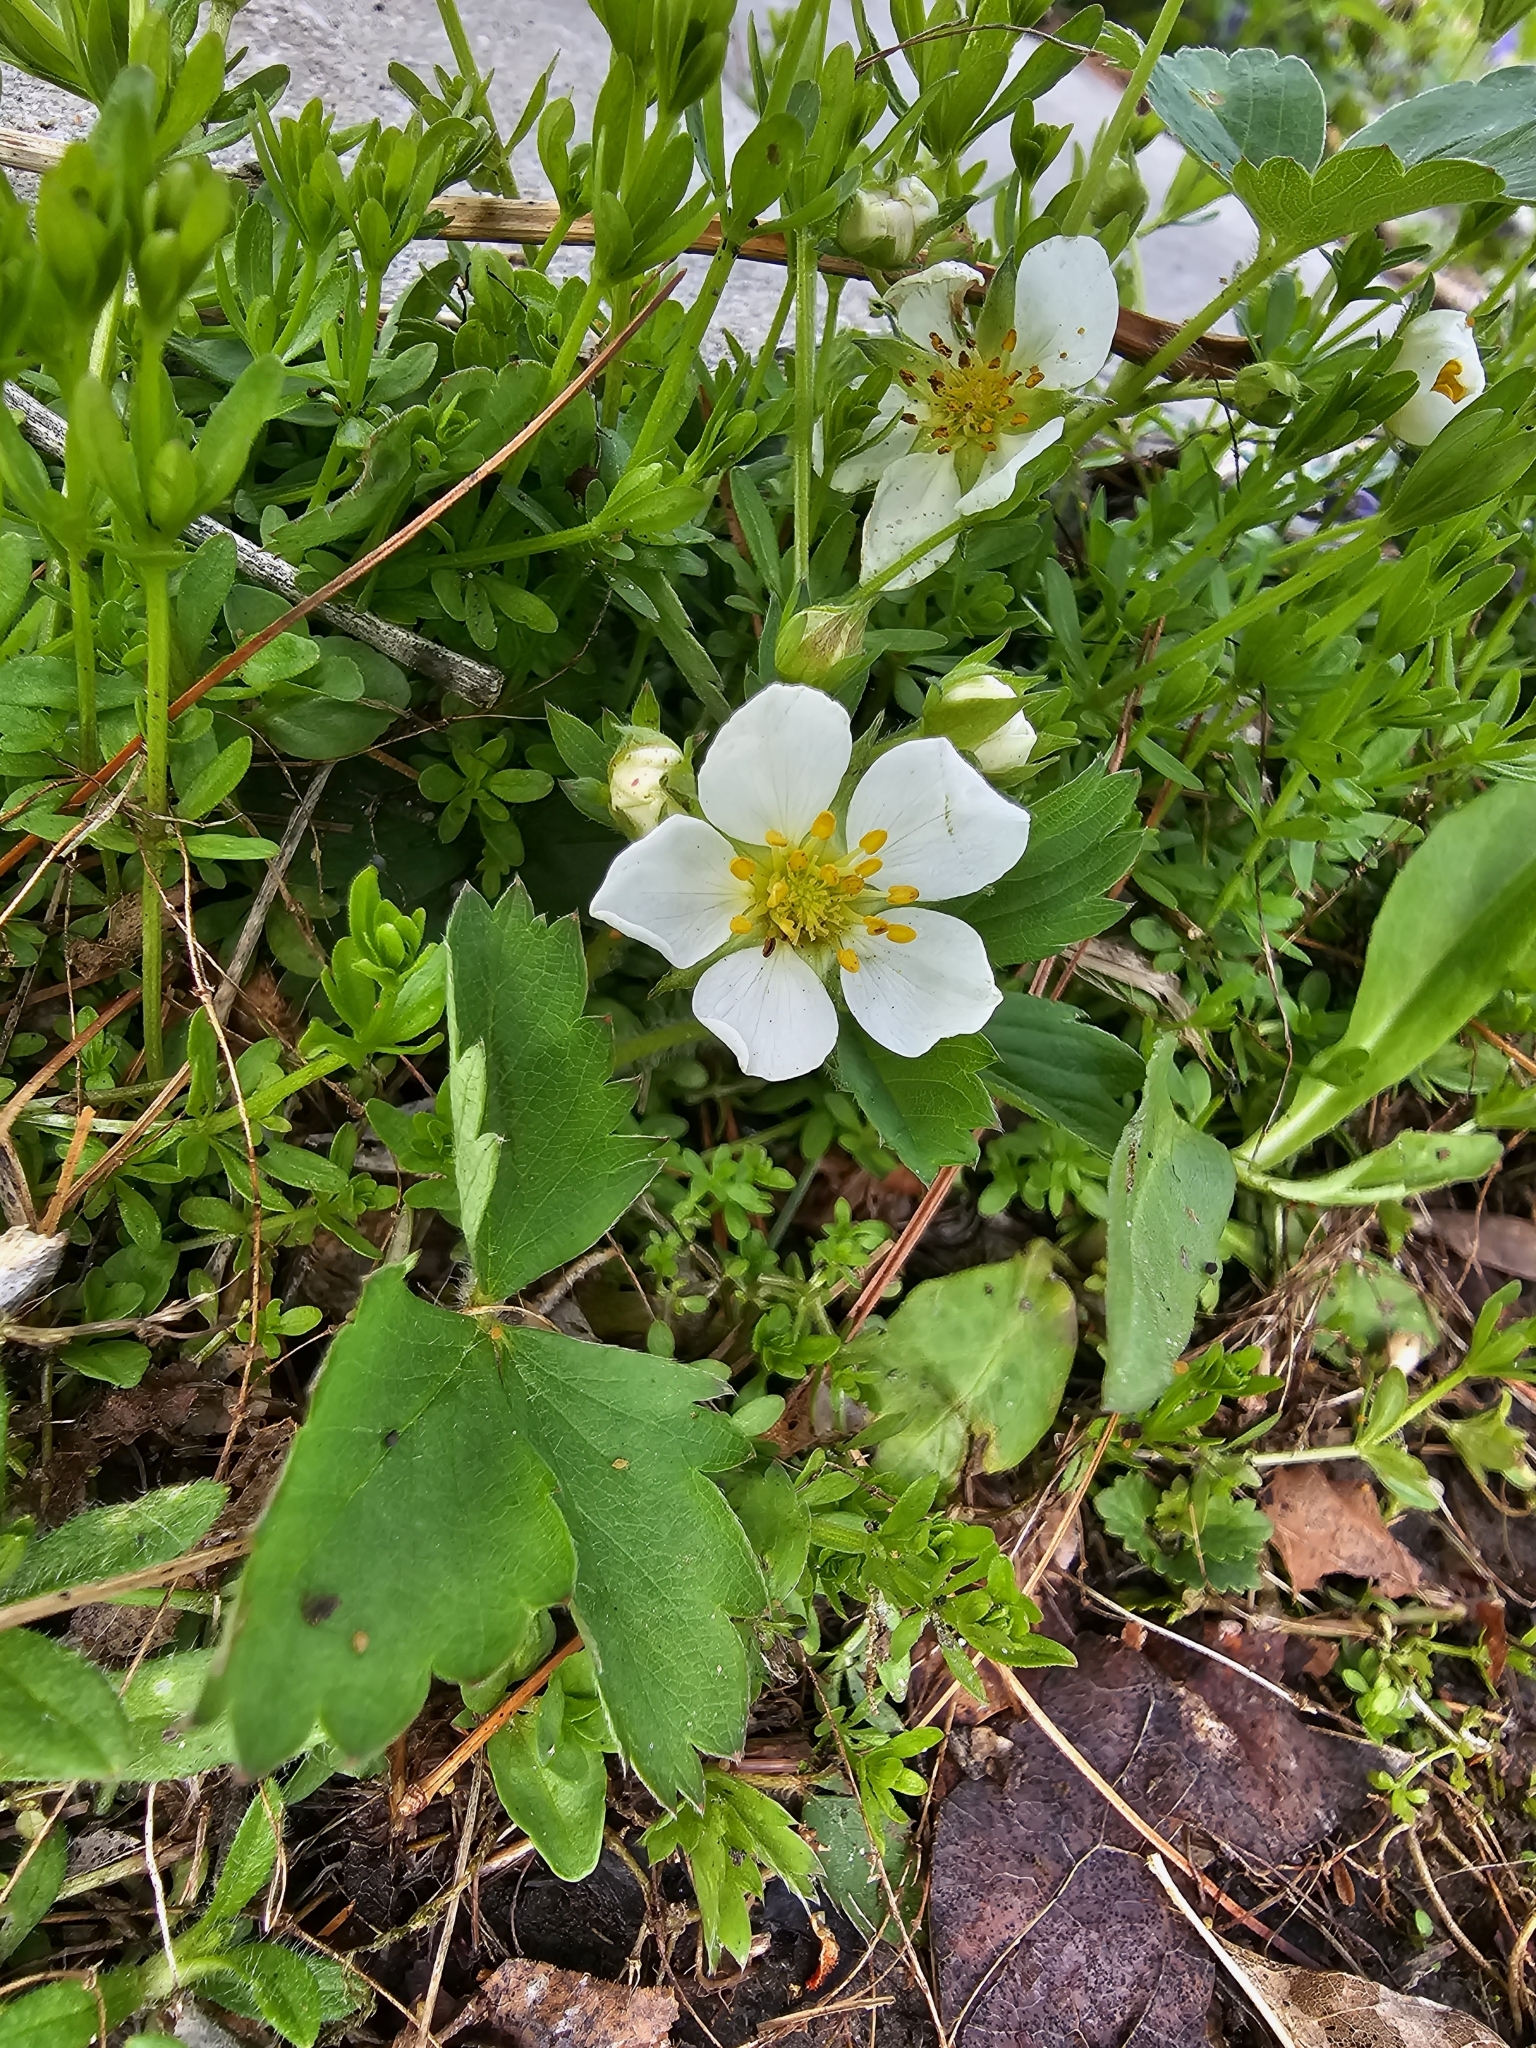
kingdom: Plantae
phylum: Tracheophyta
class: Magnoliopsida
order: Rosales
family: Rosaceae
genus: Fragaria
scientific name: Fragaria virginiana
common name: Thickleaved wild strawberry
